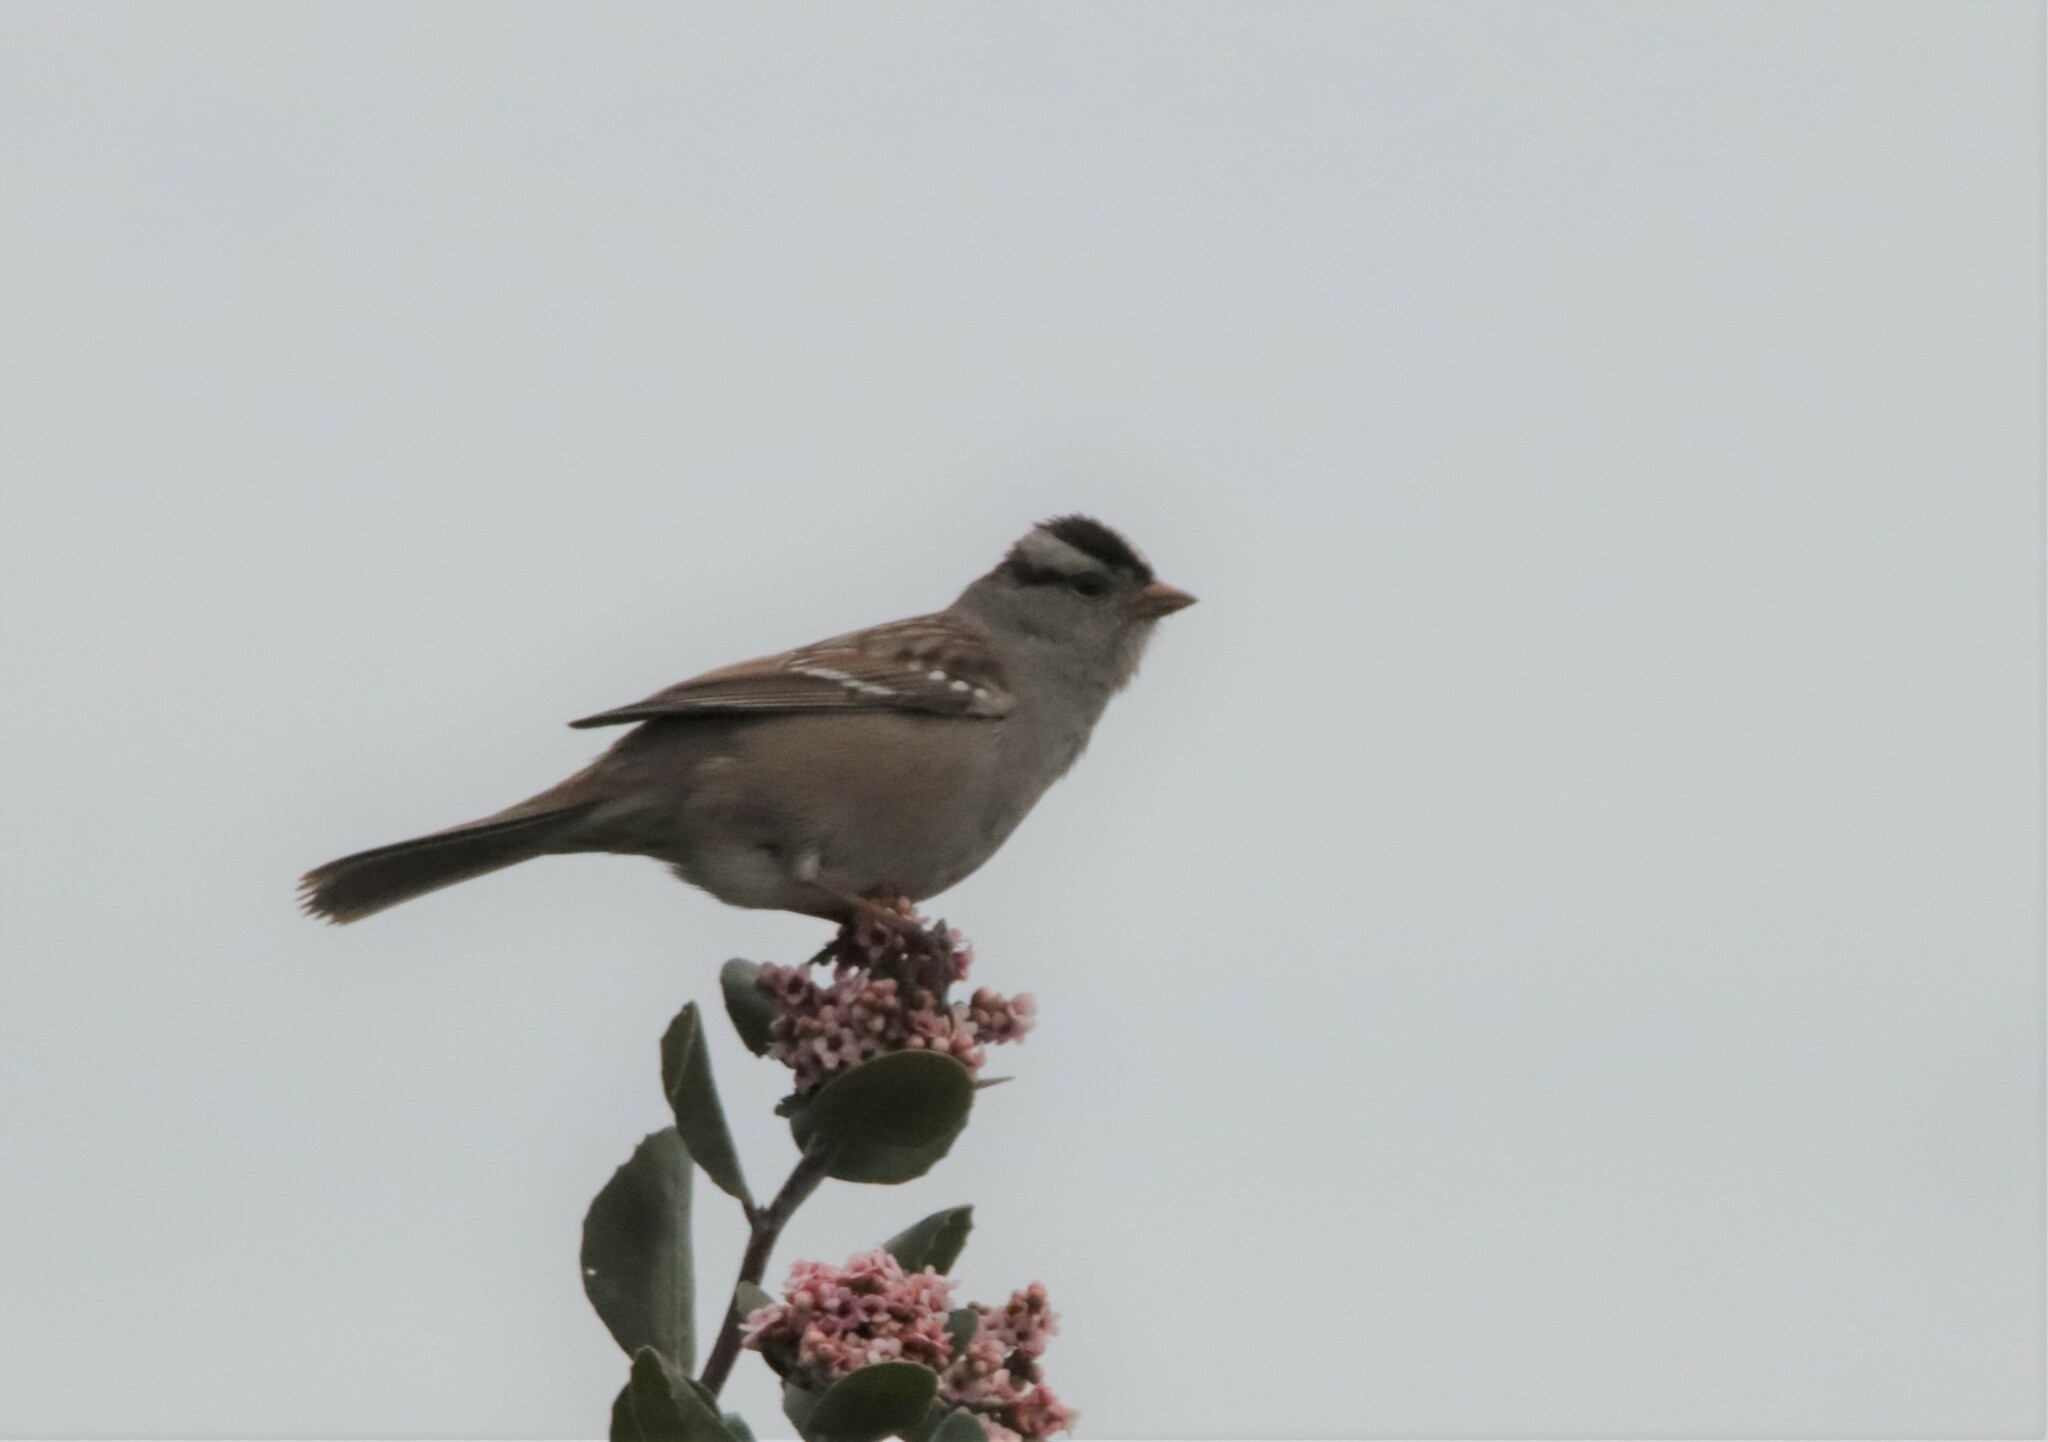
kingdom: Animalia
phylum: Chordata
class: Aves
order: Passeriformes
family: Passerellidae
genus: Zonotrichia
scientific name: Zonotrichia leucophrys
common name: White-crowned sparrow
